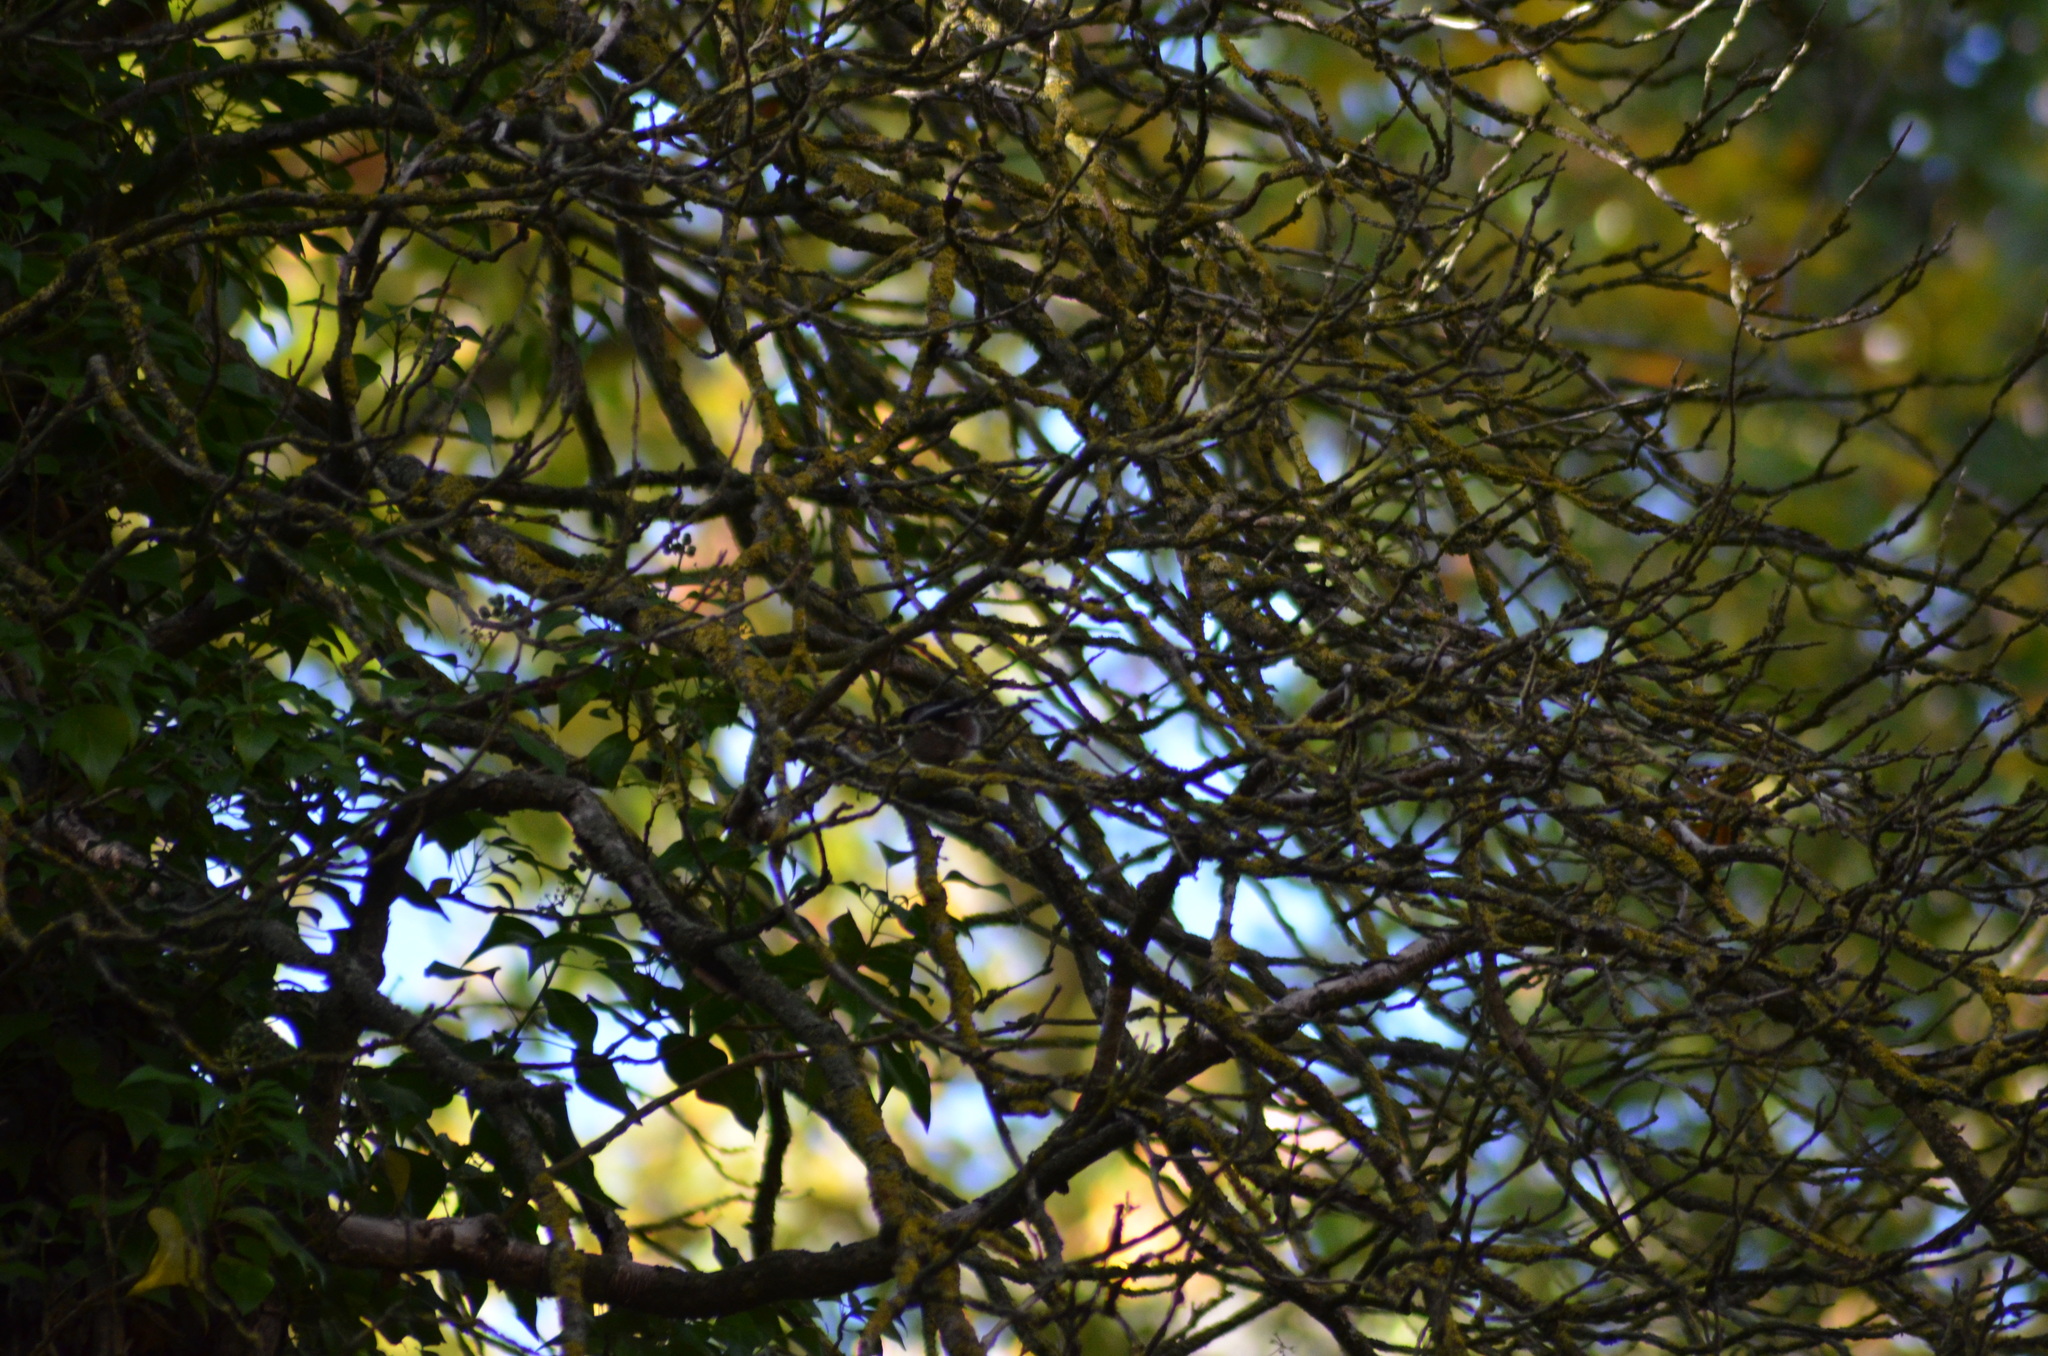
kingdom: Animalia
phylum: Chordata
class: Aves
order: Passeriformes
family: Aegithalidae
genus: Aegithalos
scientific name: Aegithalos caudatus
